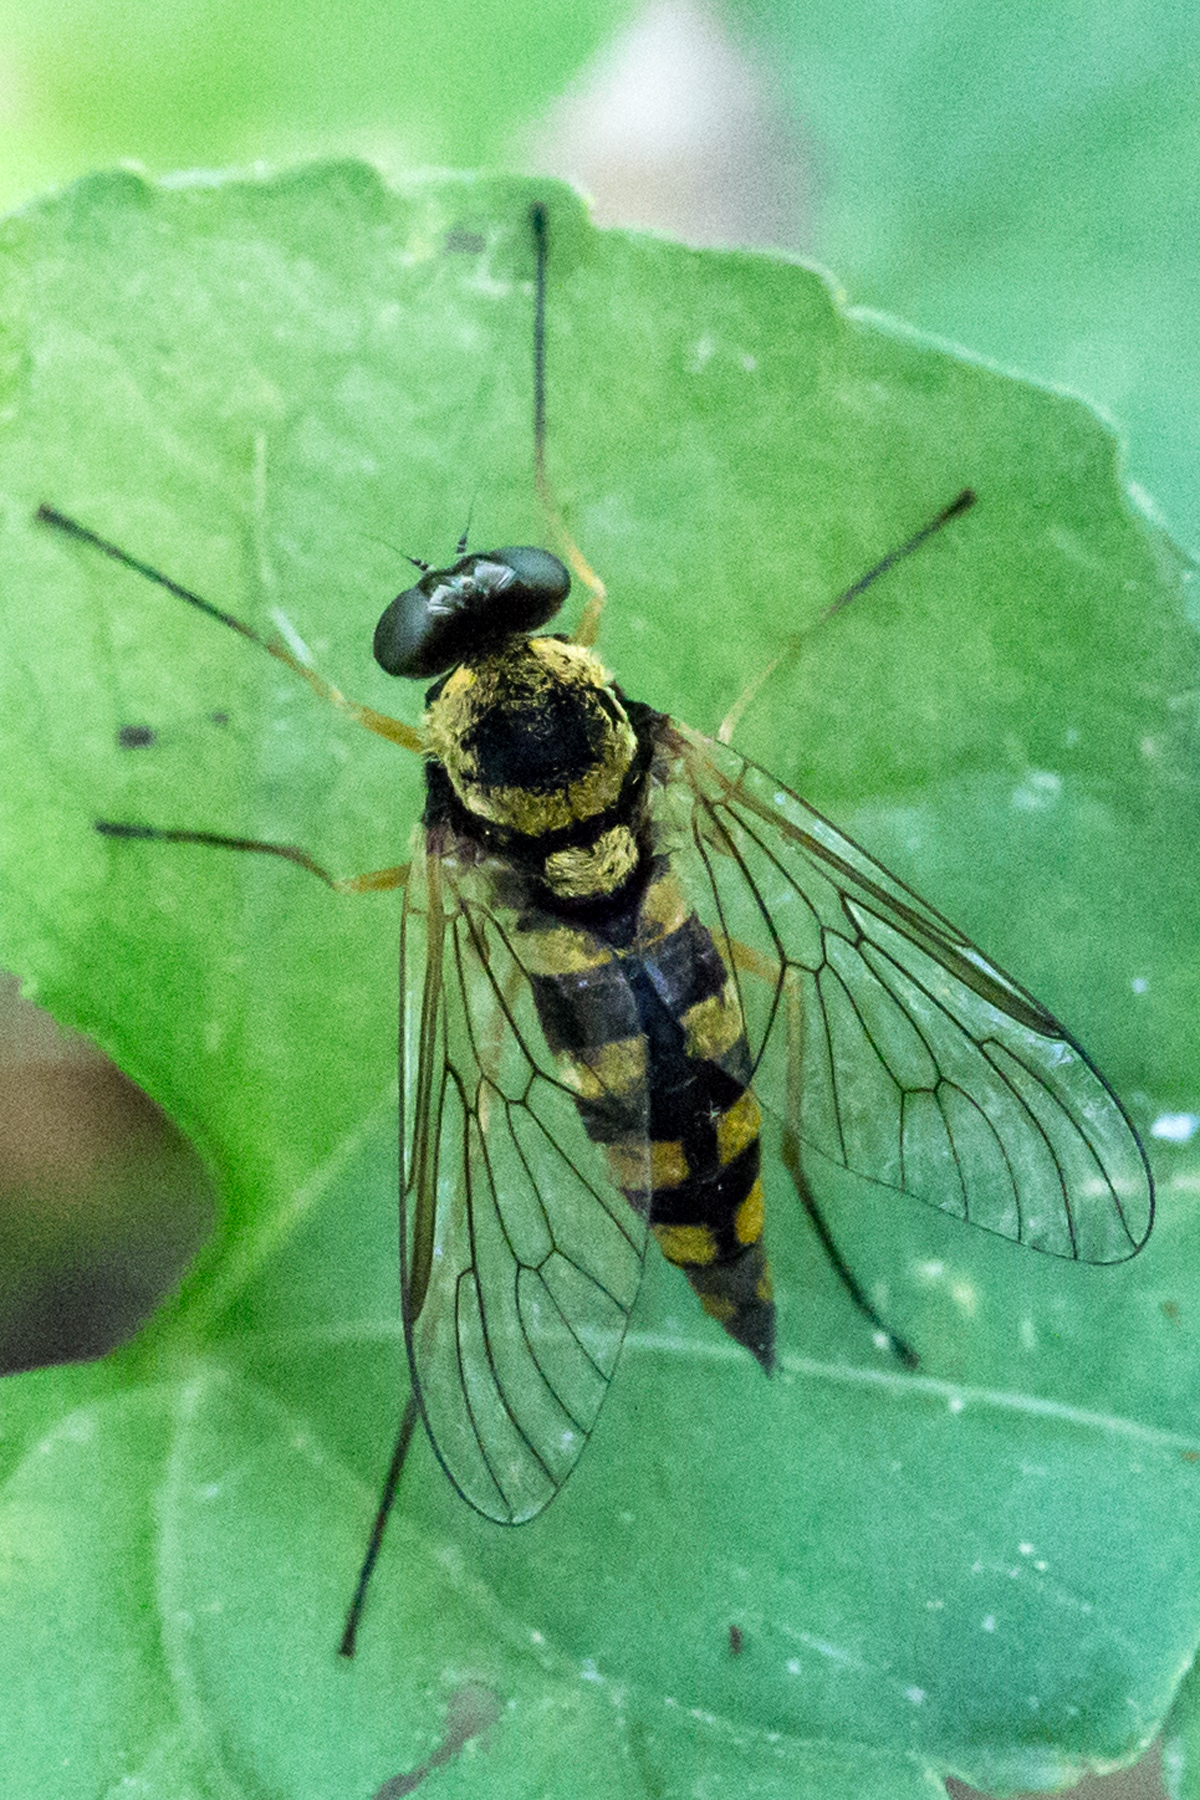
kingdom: Animalia
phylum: Arthropoda
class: Insecta
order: Diptera
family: Rhagionidae
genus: Chrysopilus
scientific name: Chrysopilus ornatus
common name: Ornate snipe fly
